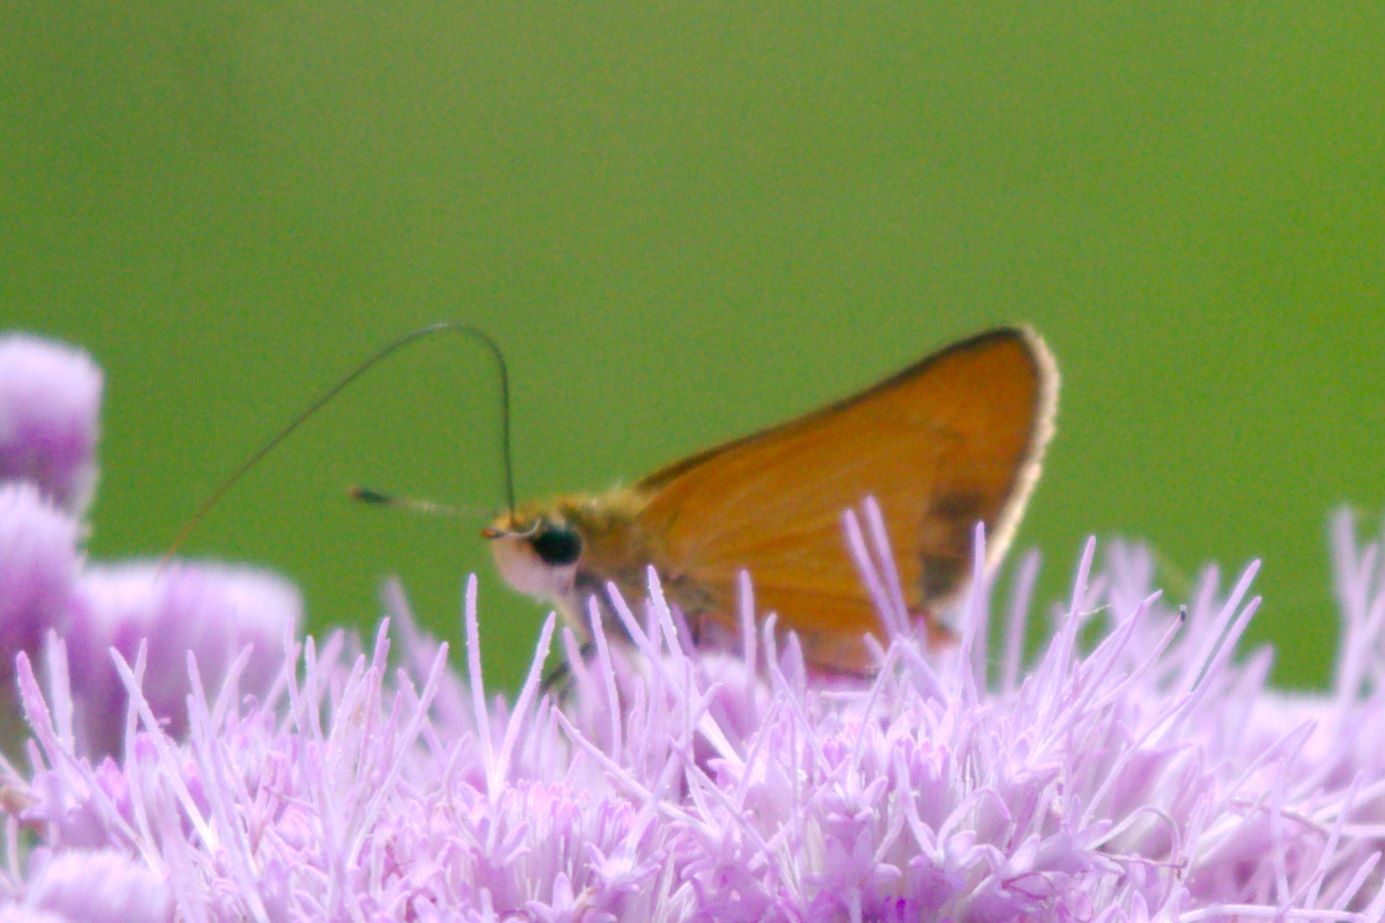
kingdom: Animalia
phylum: Arthropoda
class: Insecta
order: Lepidoptera
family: Hesperiidae
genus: Atrytone
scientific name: Atrytone delaware
